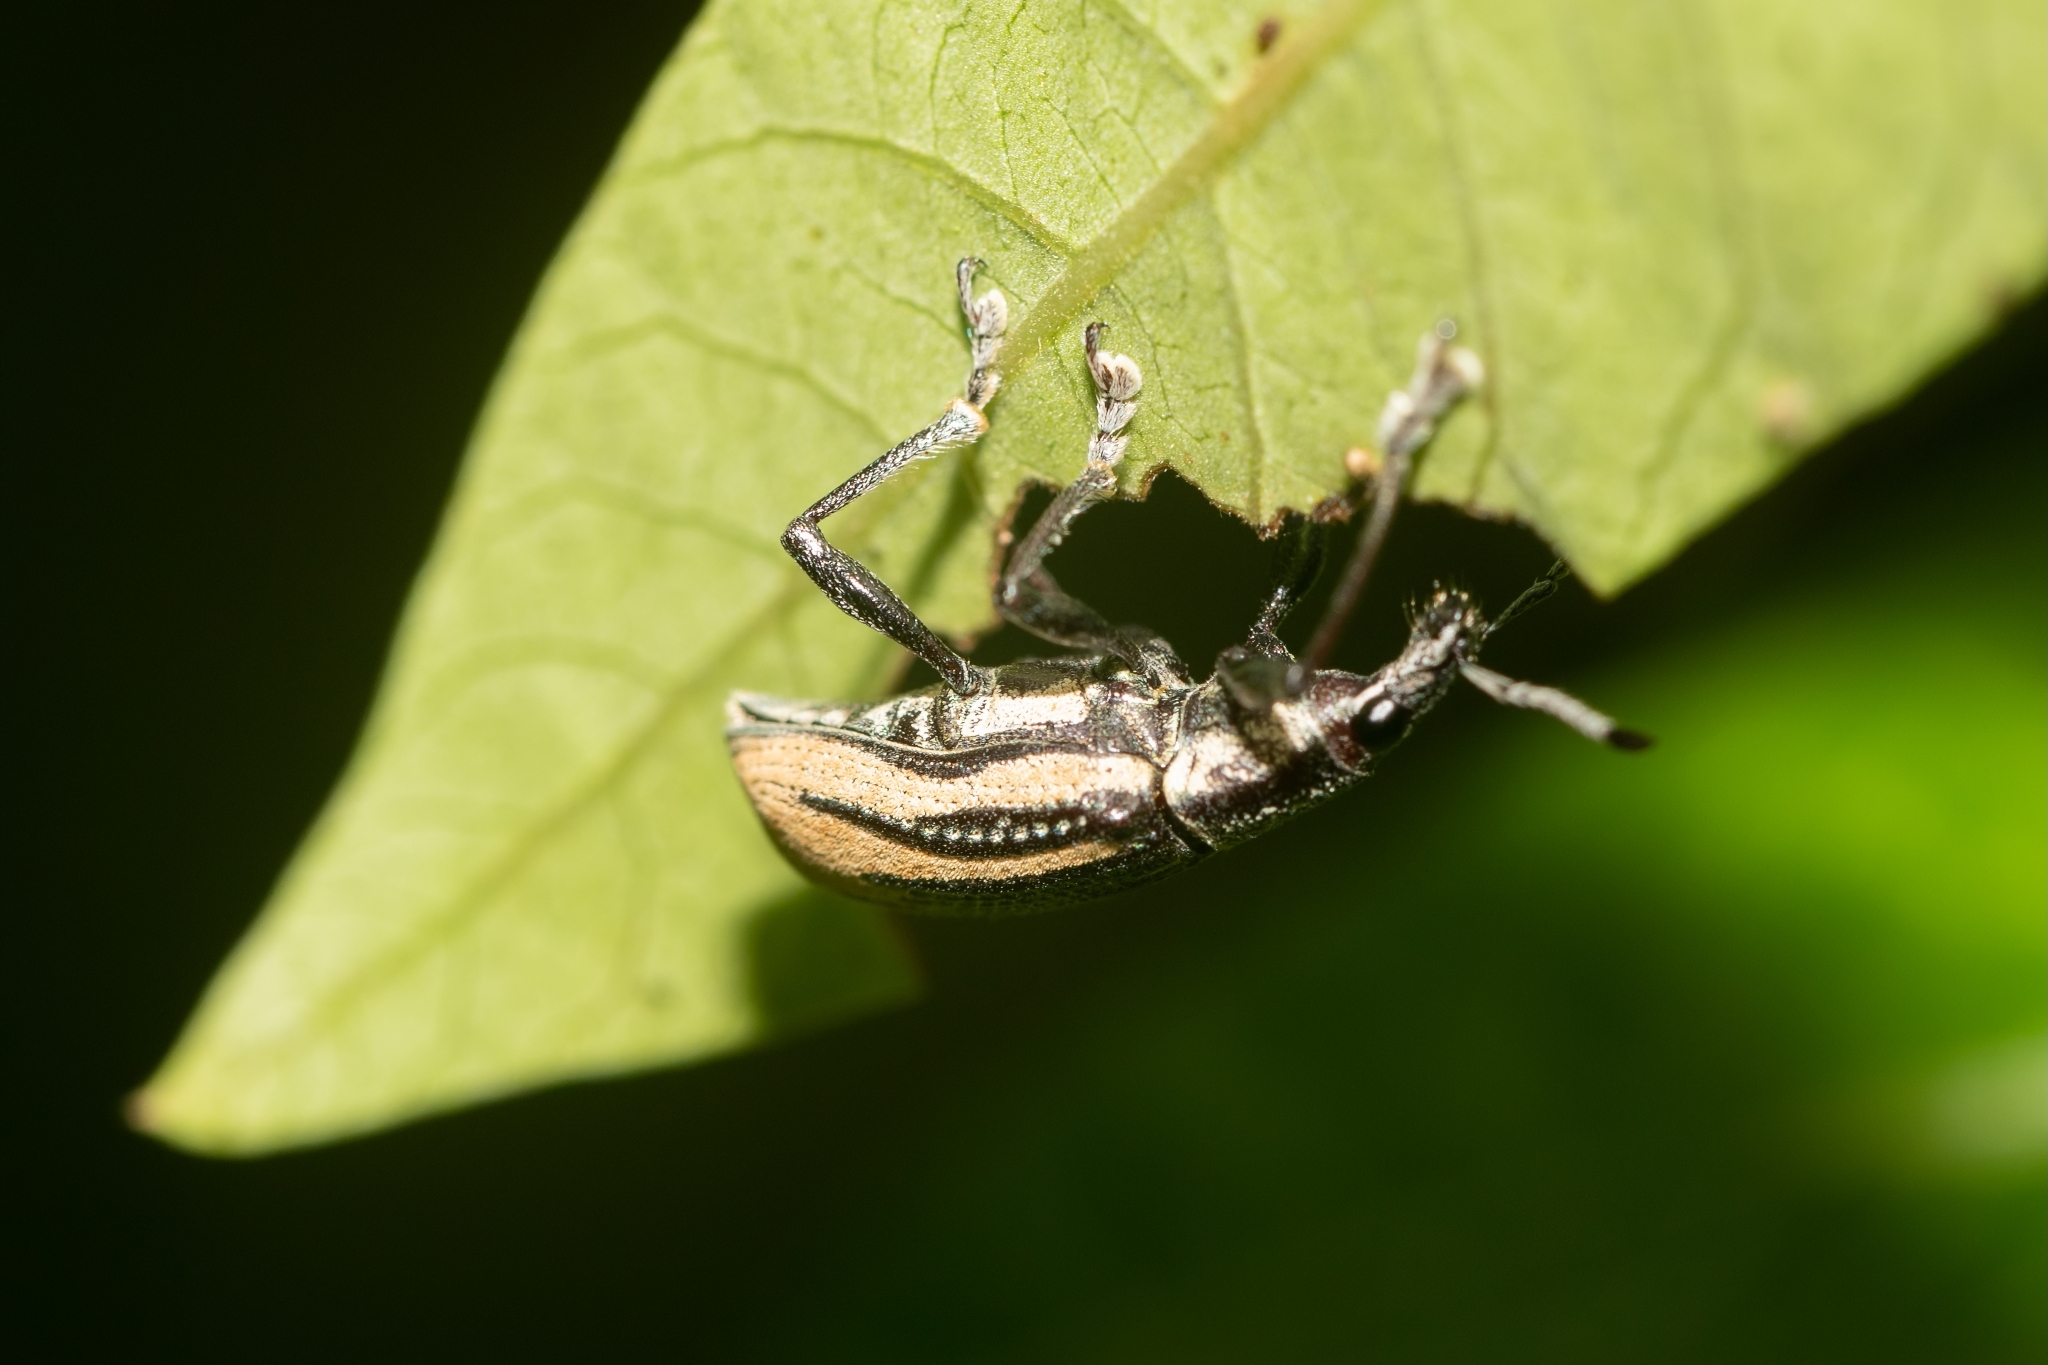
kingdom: Animalia
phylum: Arthropoda
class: Insecta
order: Coleoptera
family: Curculionidae
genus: Diaprepes
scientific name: Diaprepes abbreviatus
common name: Root weevil
